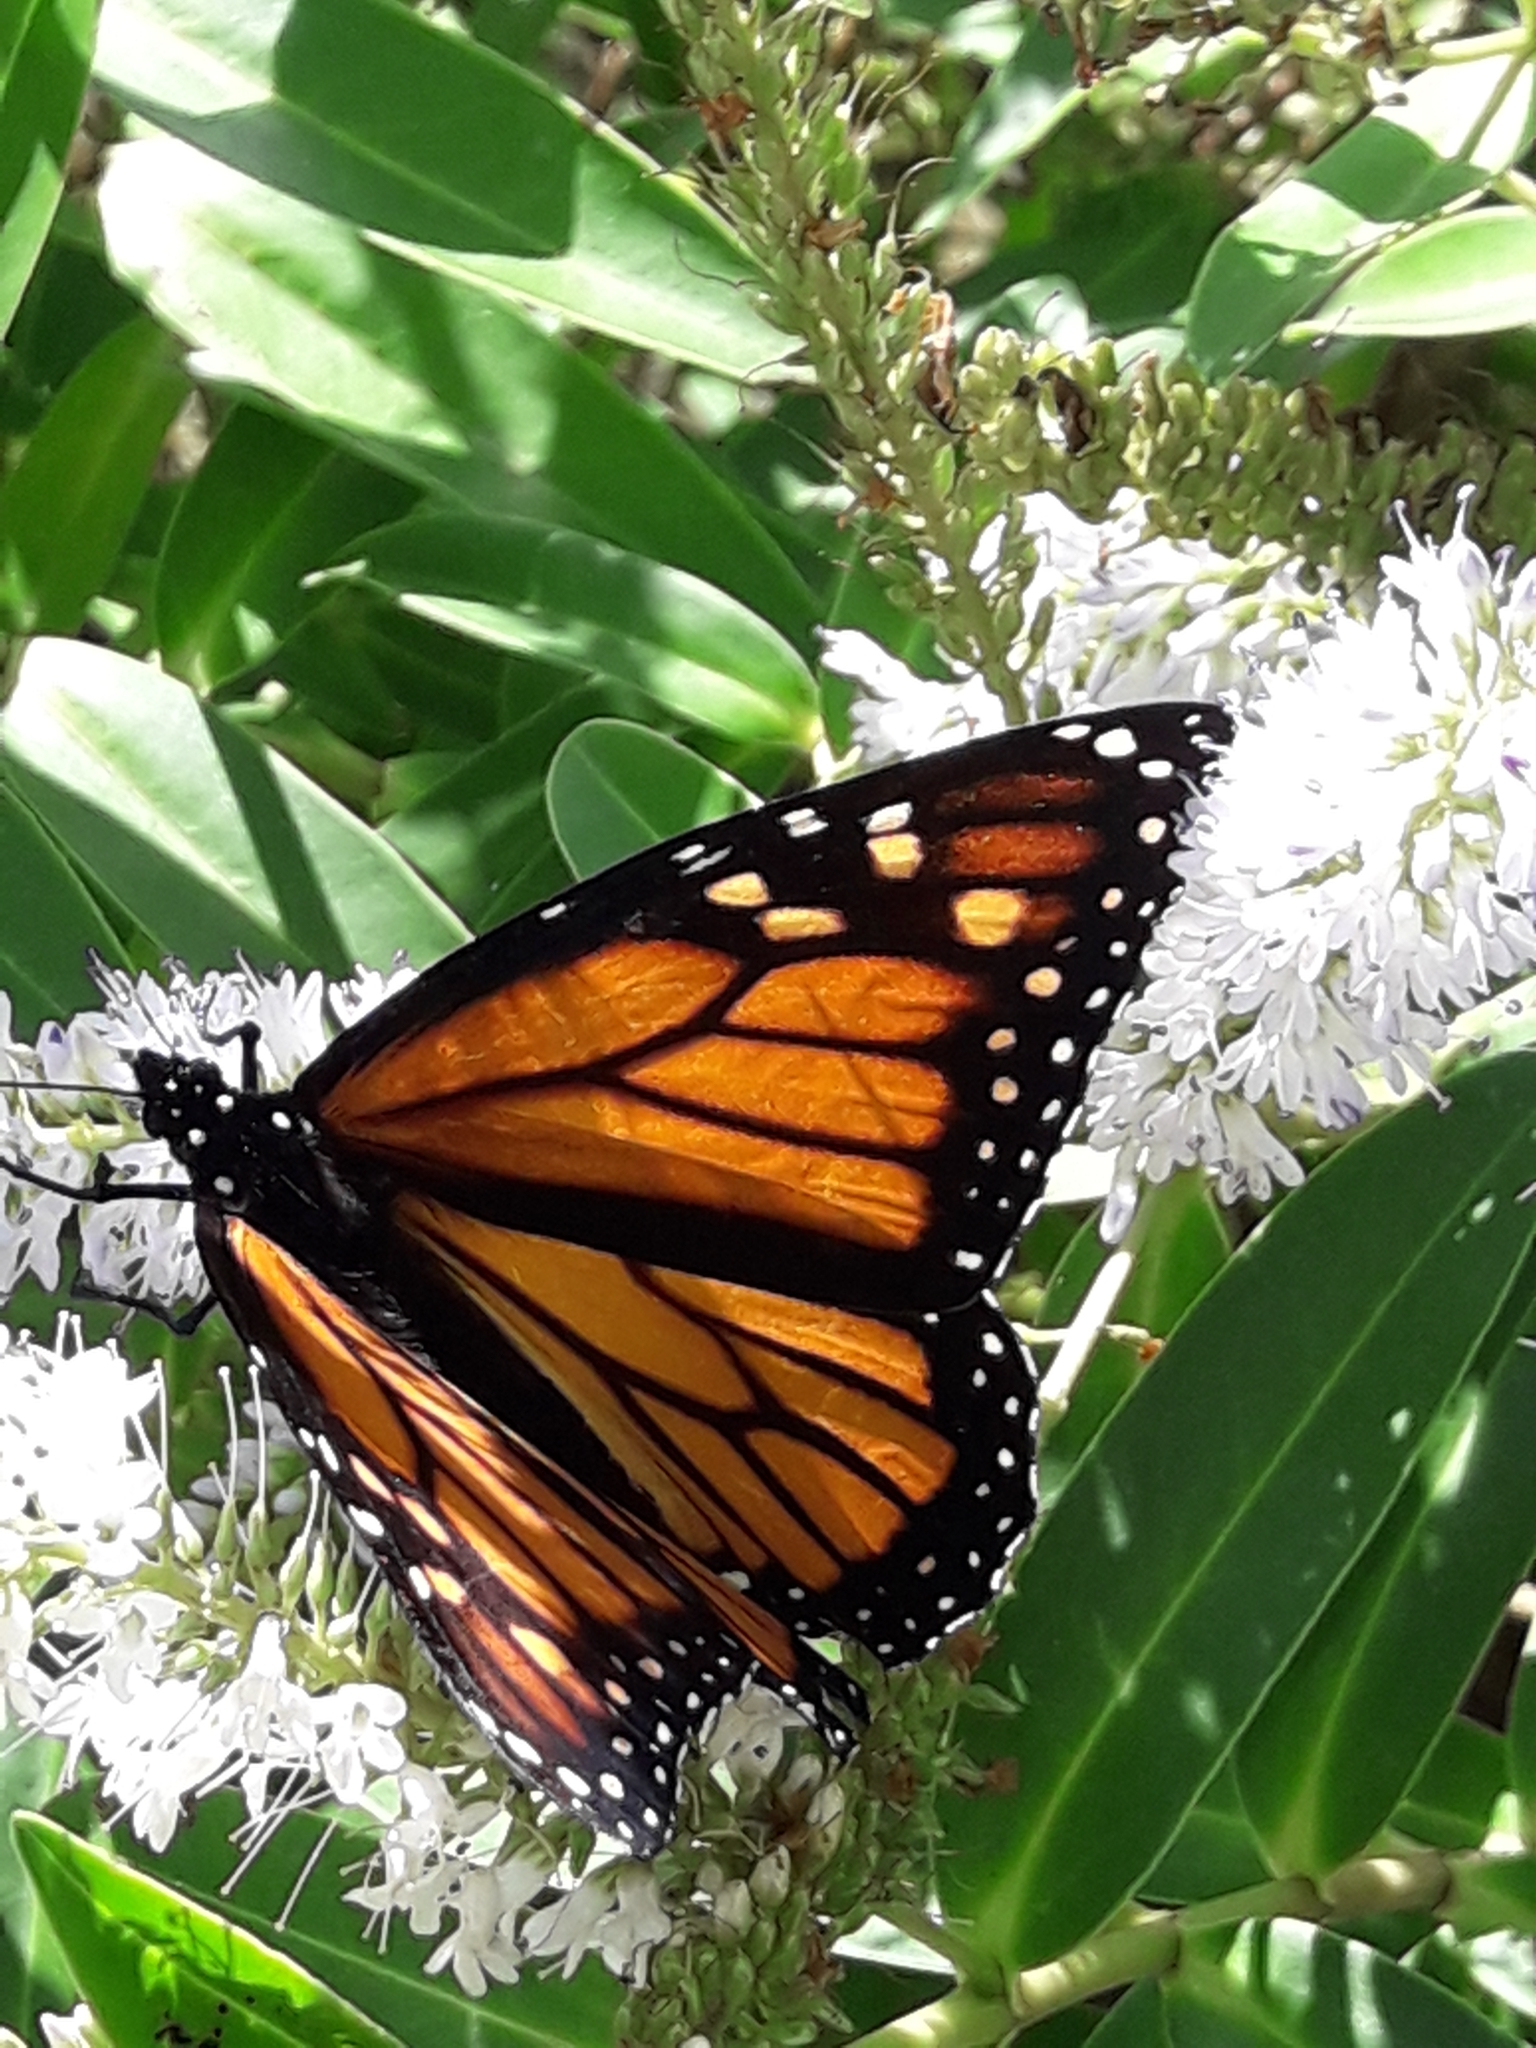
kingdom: Animalia
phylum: Arthropoda
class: Insecta
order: Lepidoptera
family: Nymphalidae
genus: Danaus
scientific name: Danaus plexippus
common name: Monarch
